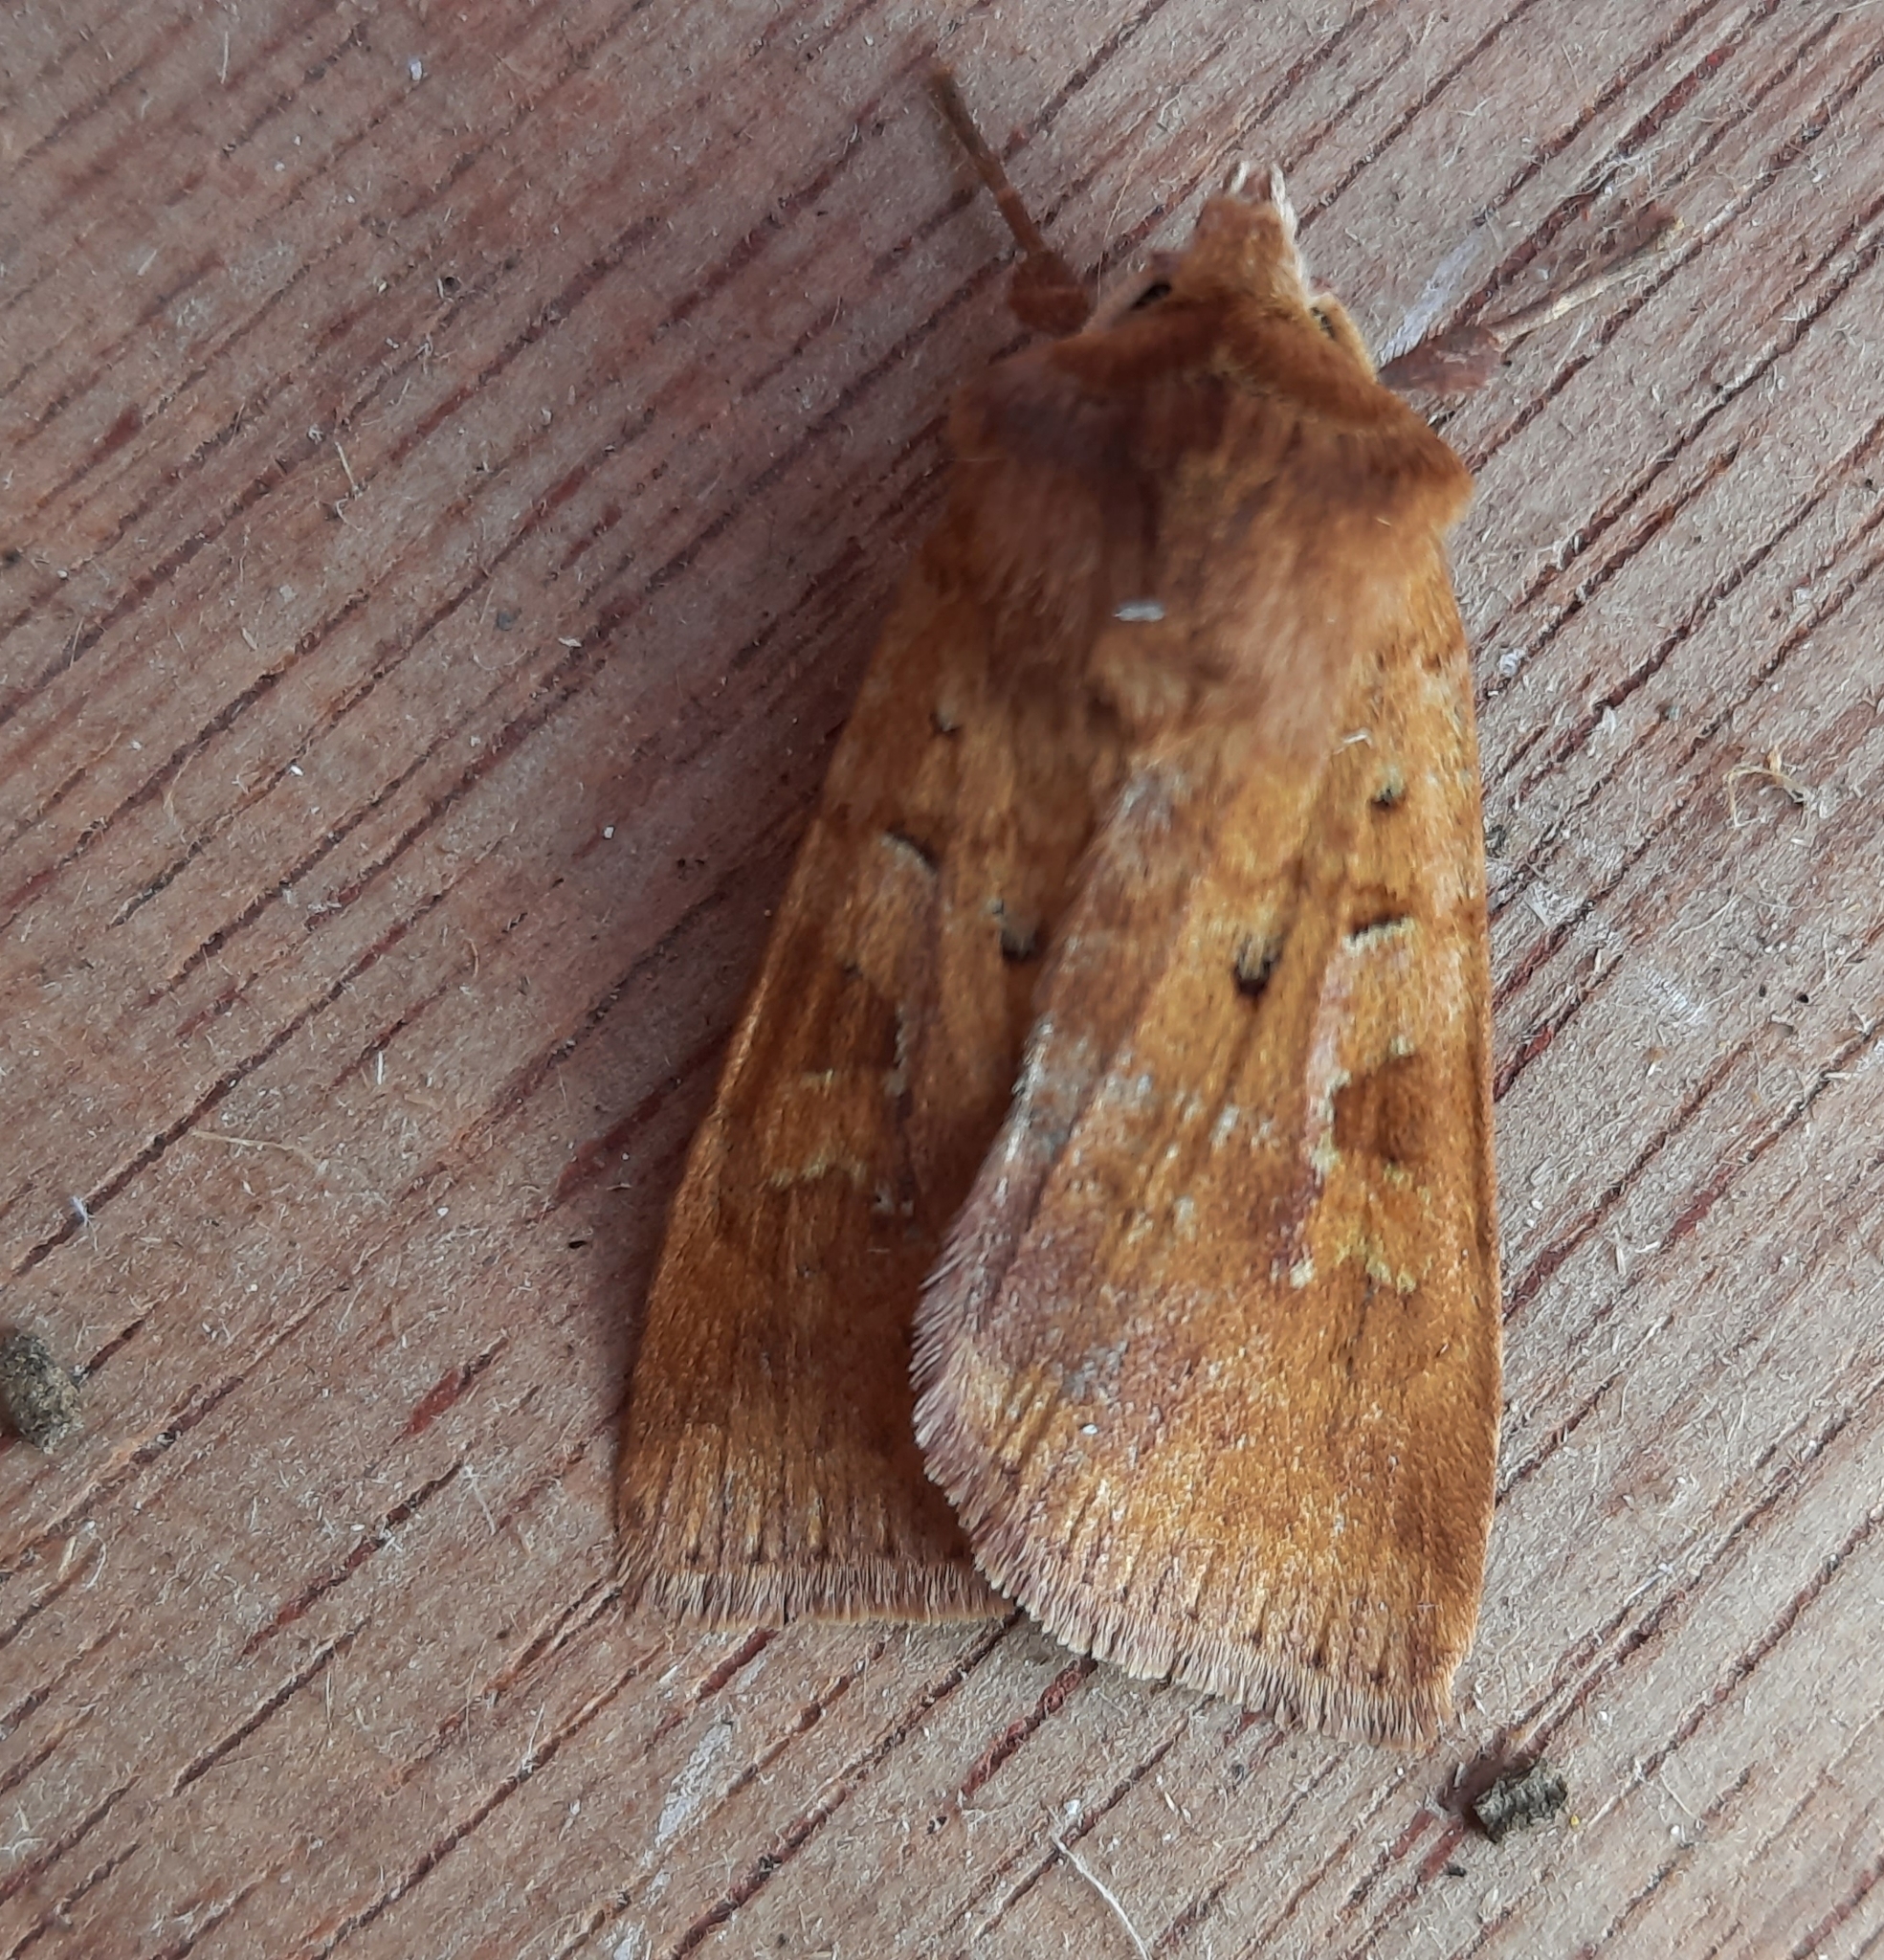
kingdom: Animalia
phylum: Arthropoda
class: Insecta
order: Lepidoptera
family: Noctuidae
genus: Diarsia
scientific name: Diarsia mendica
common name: Ingrailed clay
